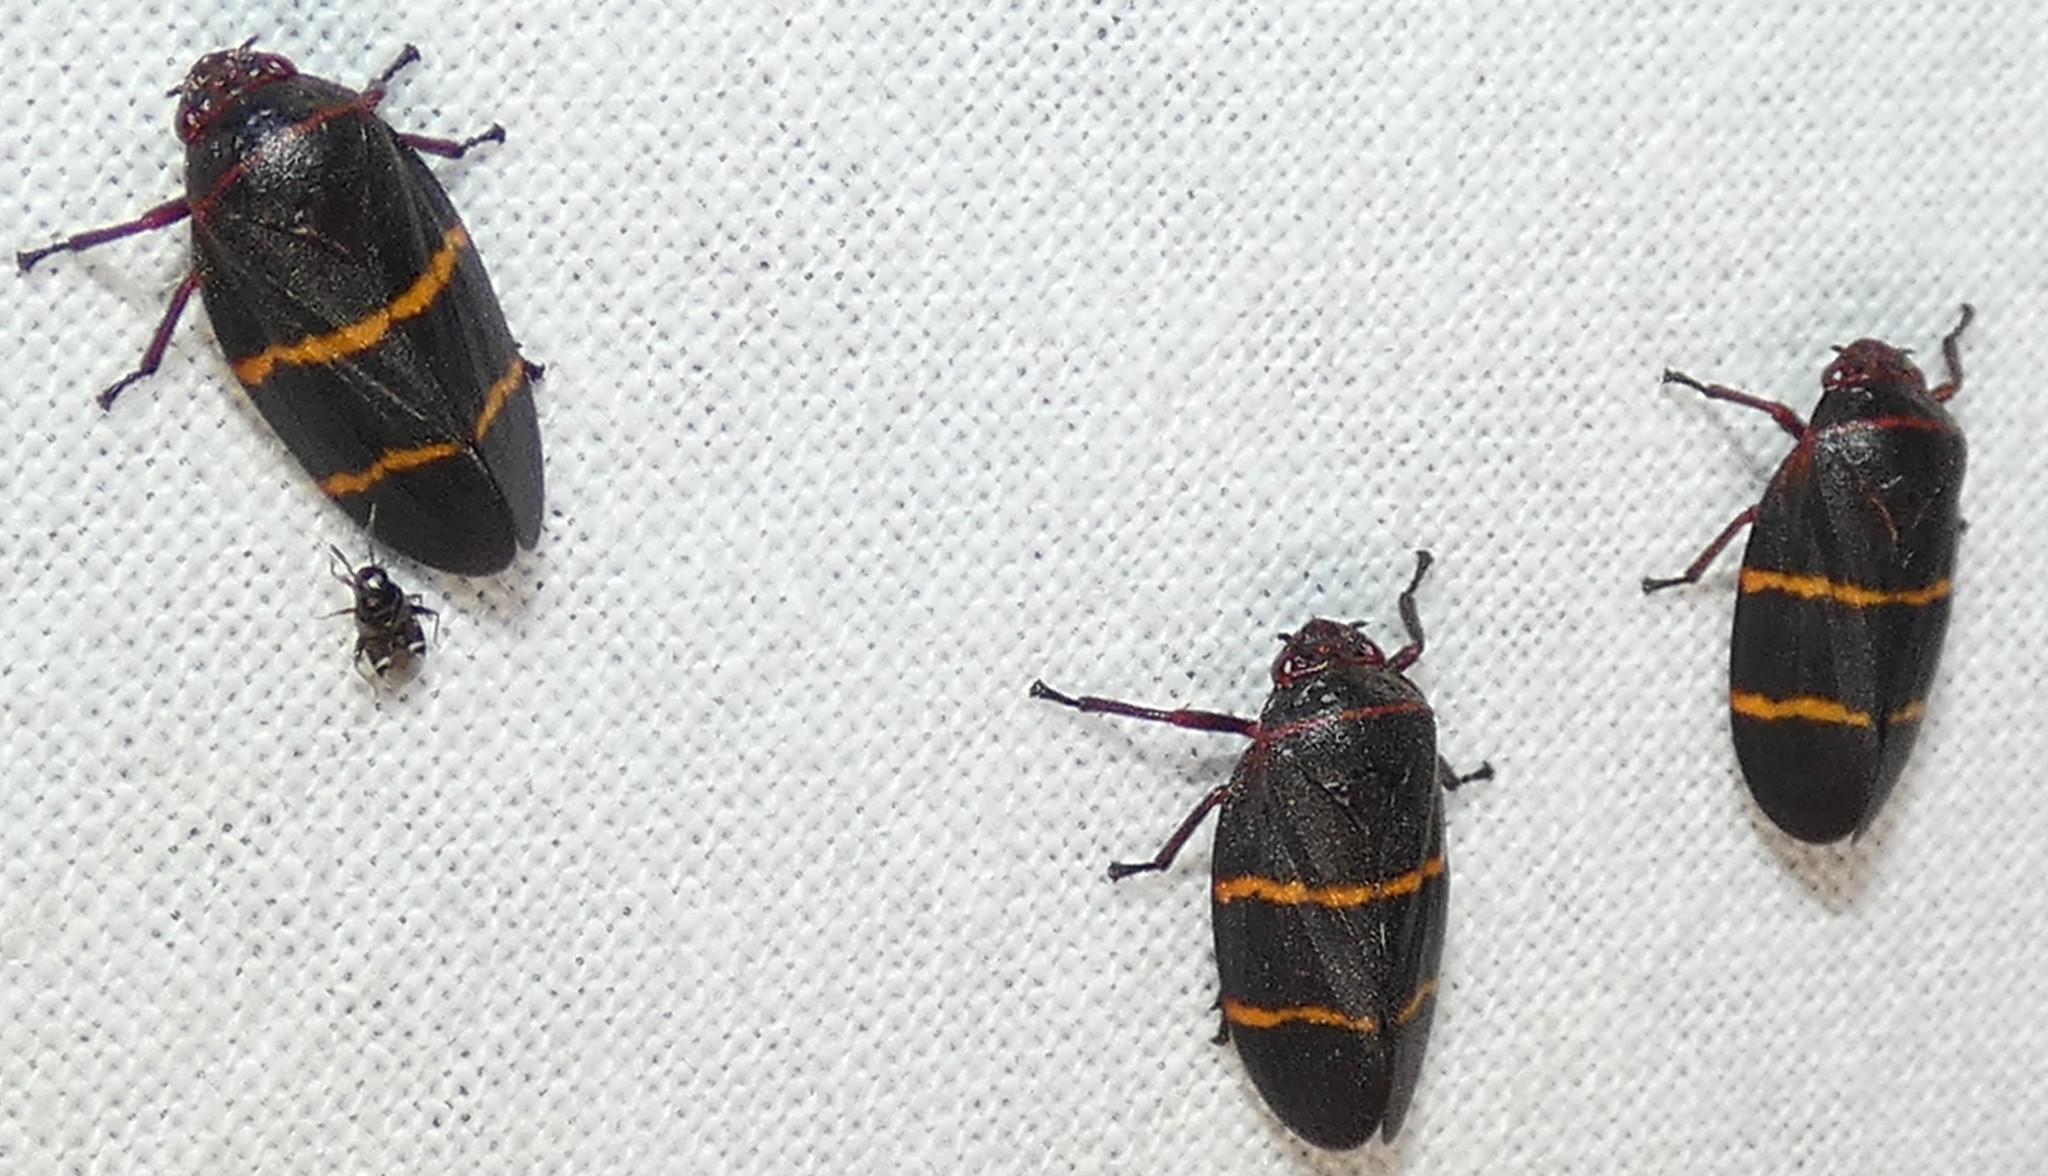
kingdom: Animalia
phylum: Arthropoda
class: Insecta
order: Hemiptera
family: Cercopidae
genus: Prosapia
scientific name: Prosapia bicincta
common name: Twolined spittlebug
